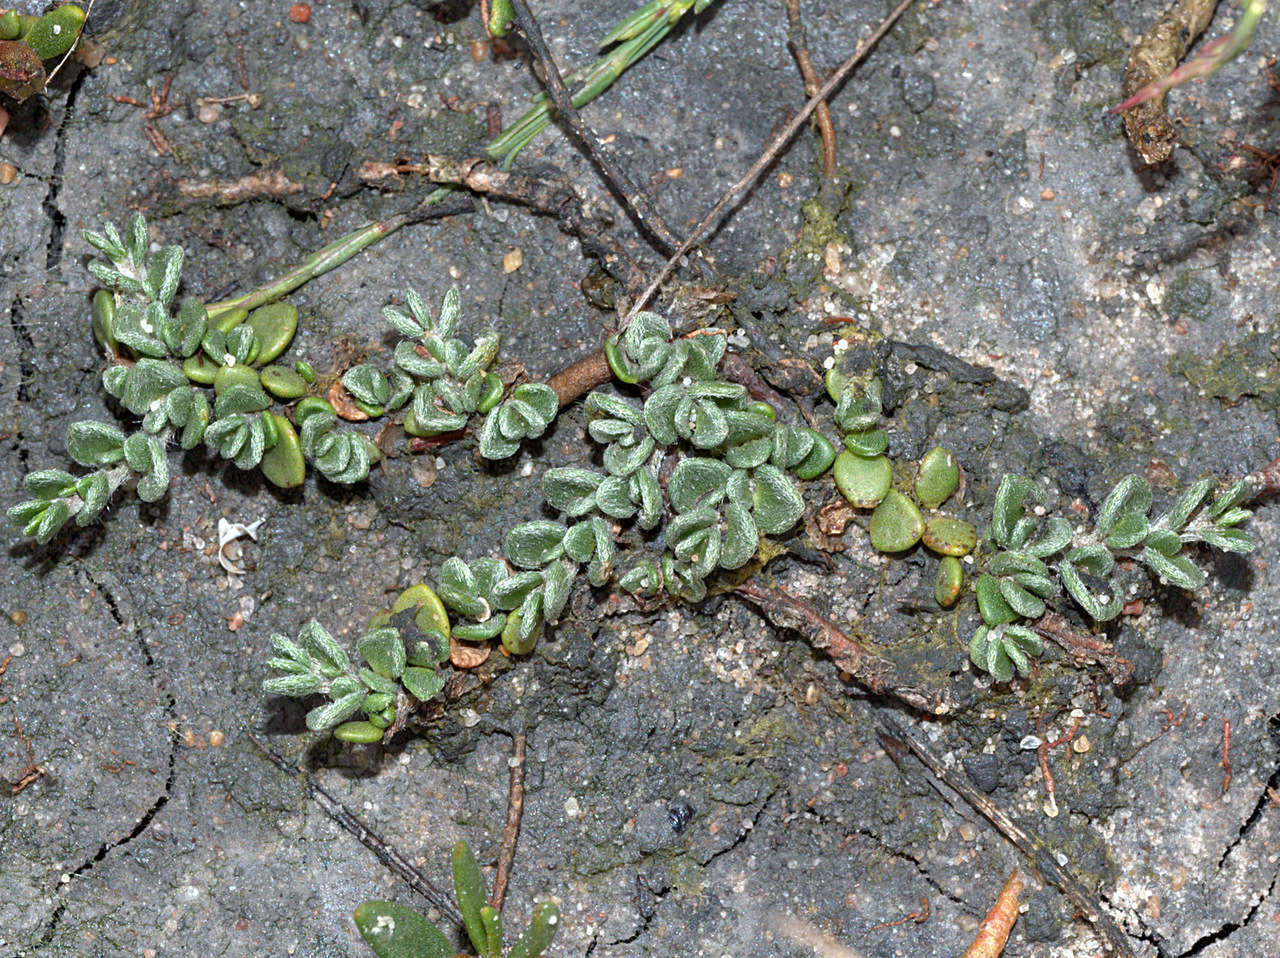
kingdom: Plantae
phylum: Tracheophyta
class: Magnoliopsida
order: Solanales
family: Convolvulaceae
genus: Wilsonia
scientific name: Wilsonia rotundifolia
